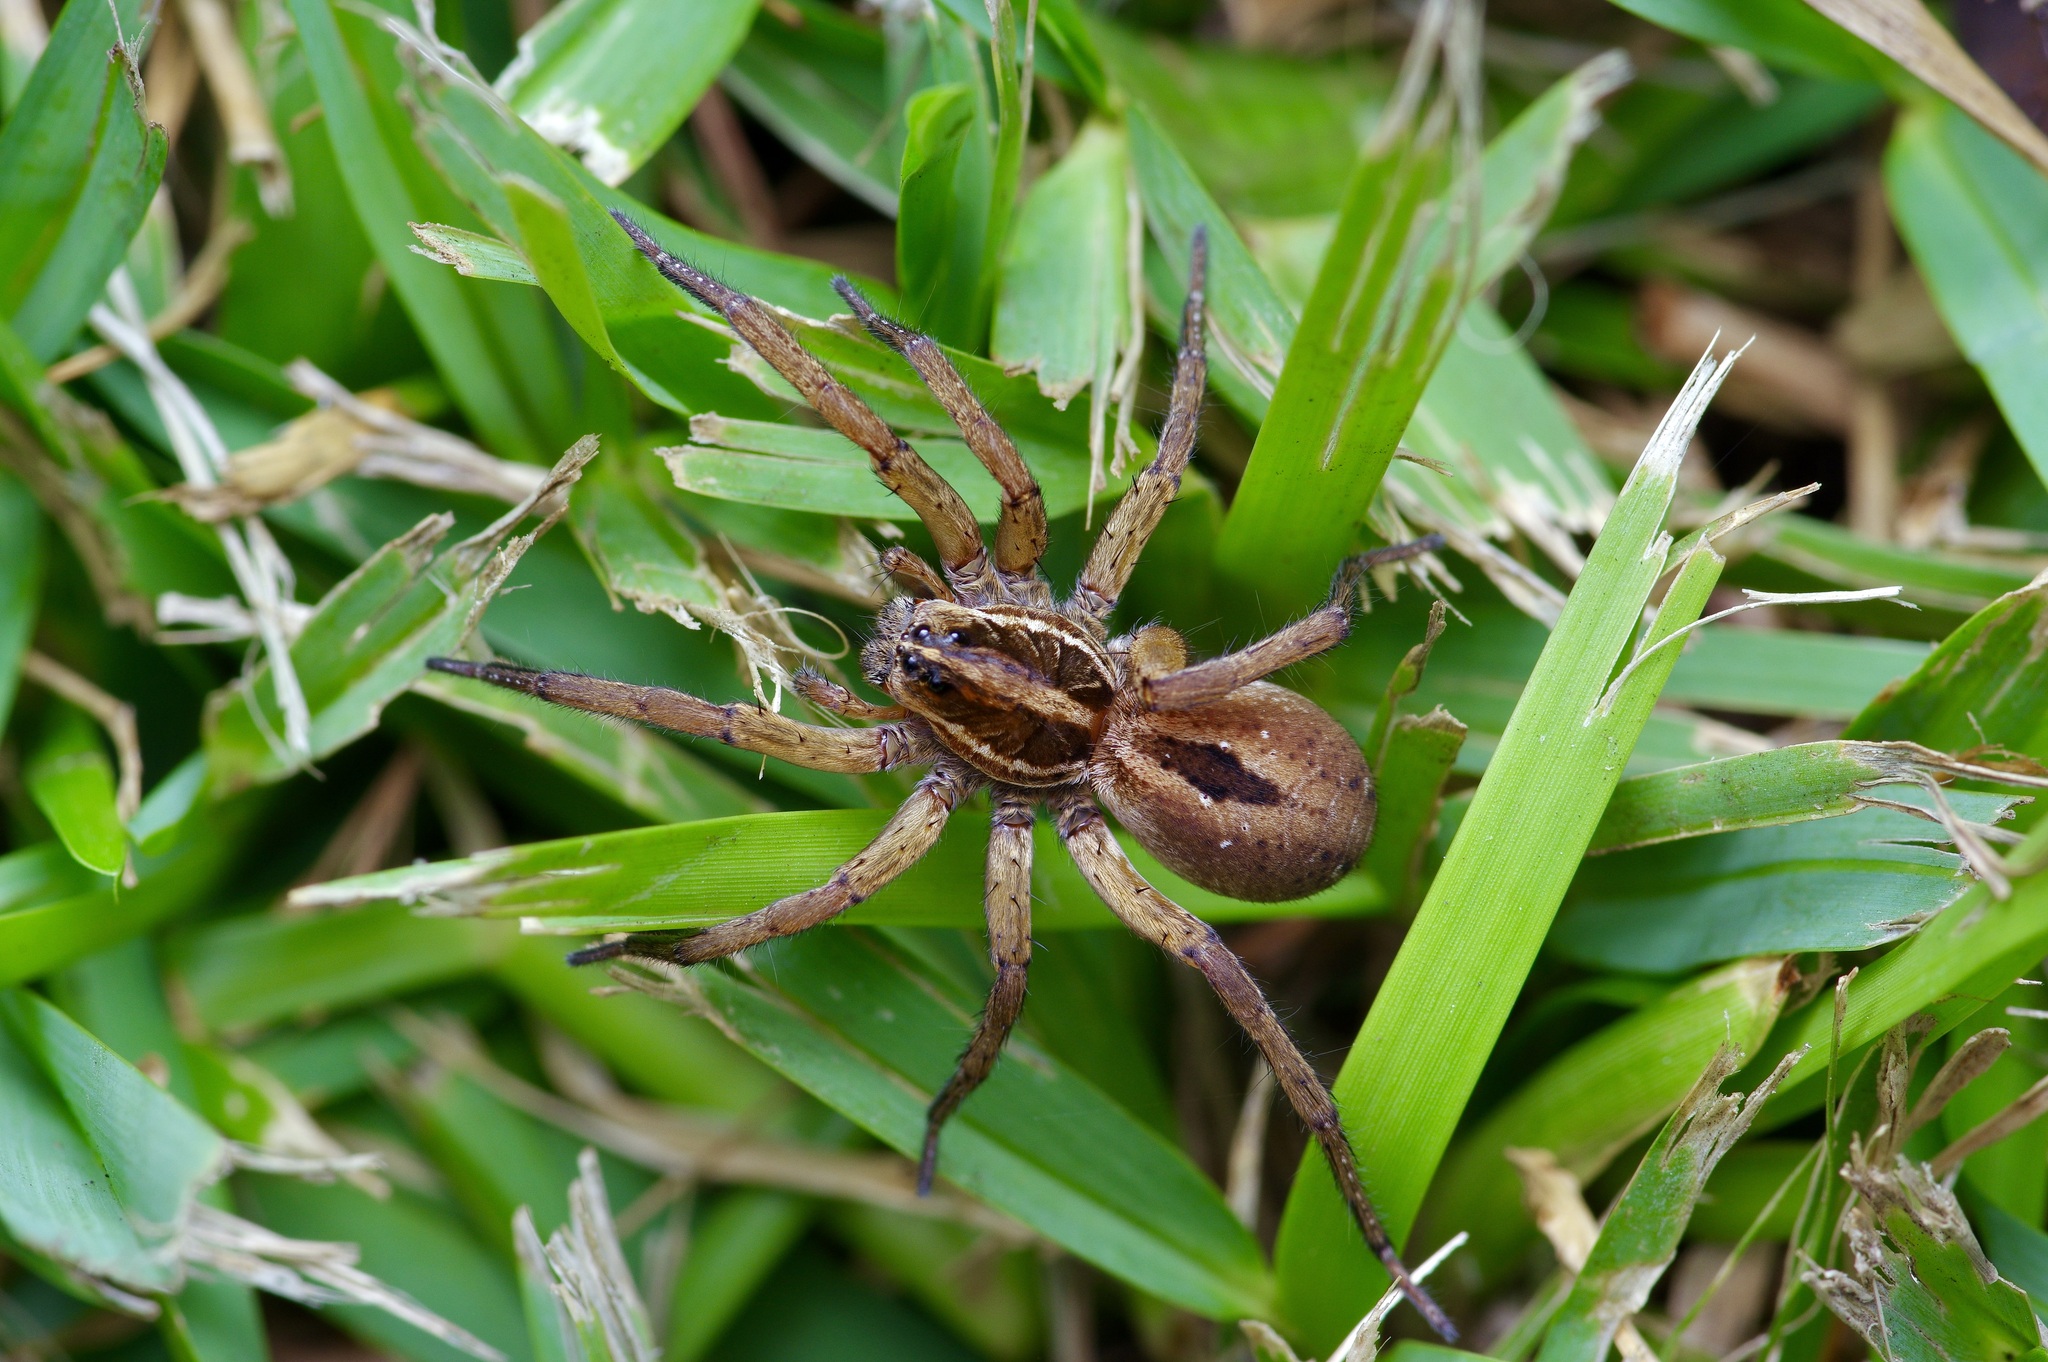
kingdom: Animalia
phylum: Arthropoda
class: Arachnida
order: Araneae
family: Lycosidae
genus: Tigrosa
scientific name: Tigrosa annexa
